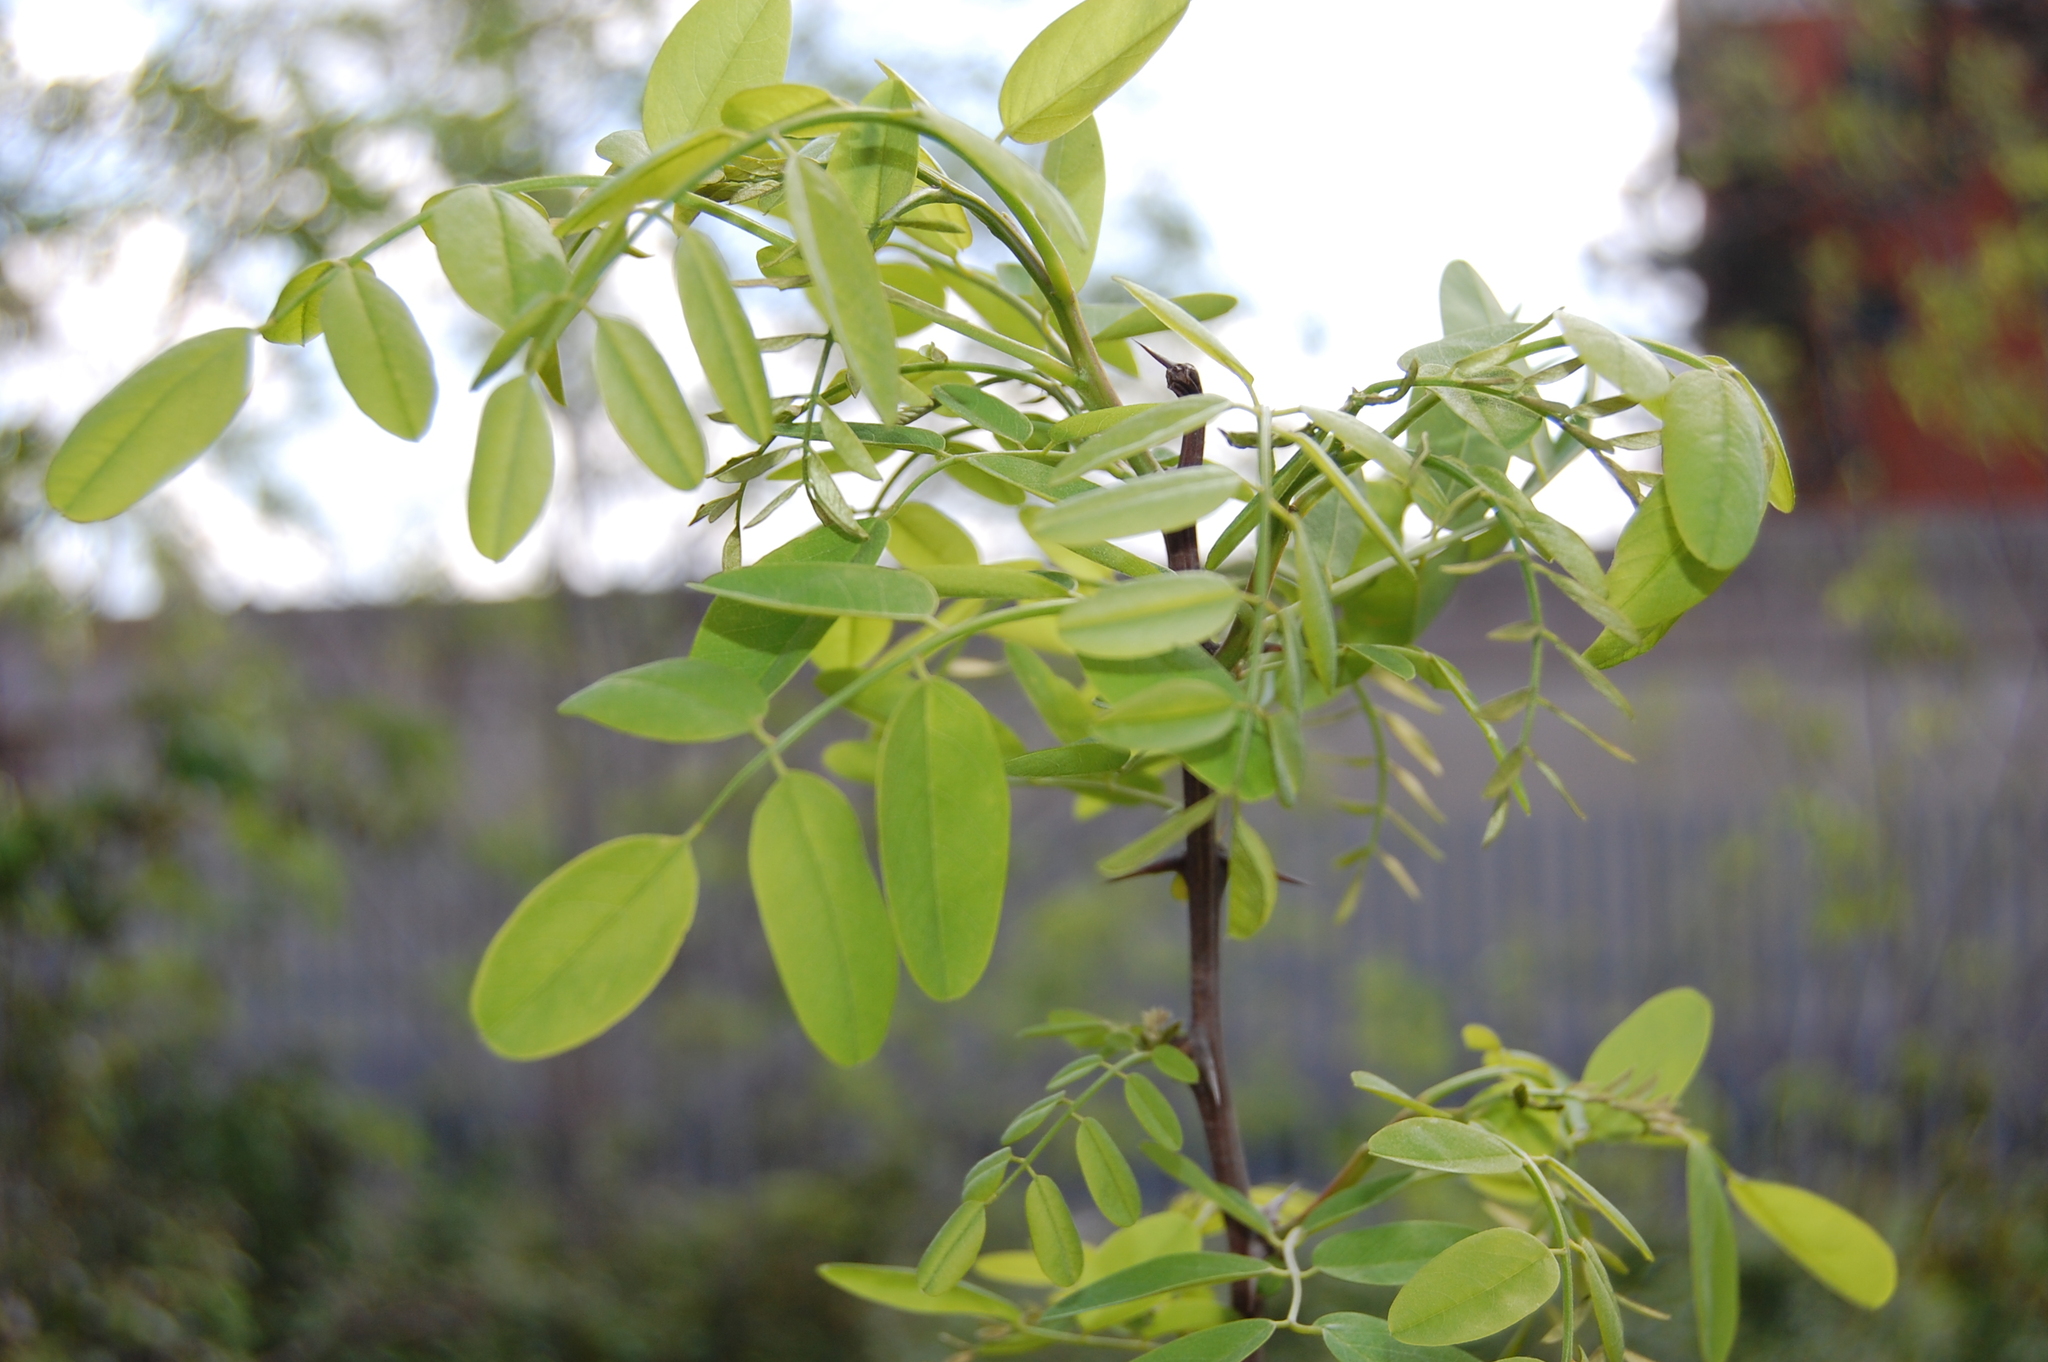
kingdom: Plantae
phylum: Tracheophyta
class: Magnoliopsida
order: Fabales
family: Fabaceae
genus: Robinia
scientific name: Robinia pseudoacacia
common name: Black locust
